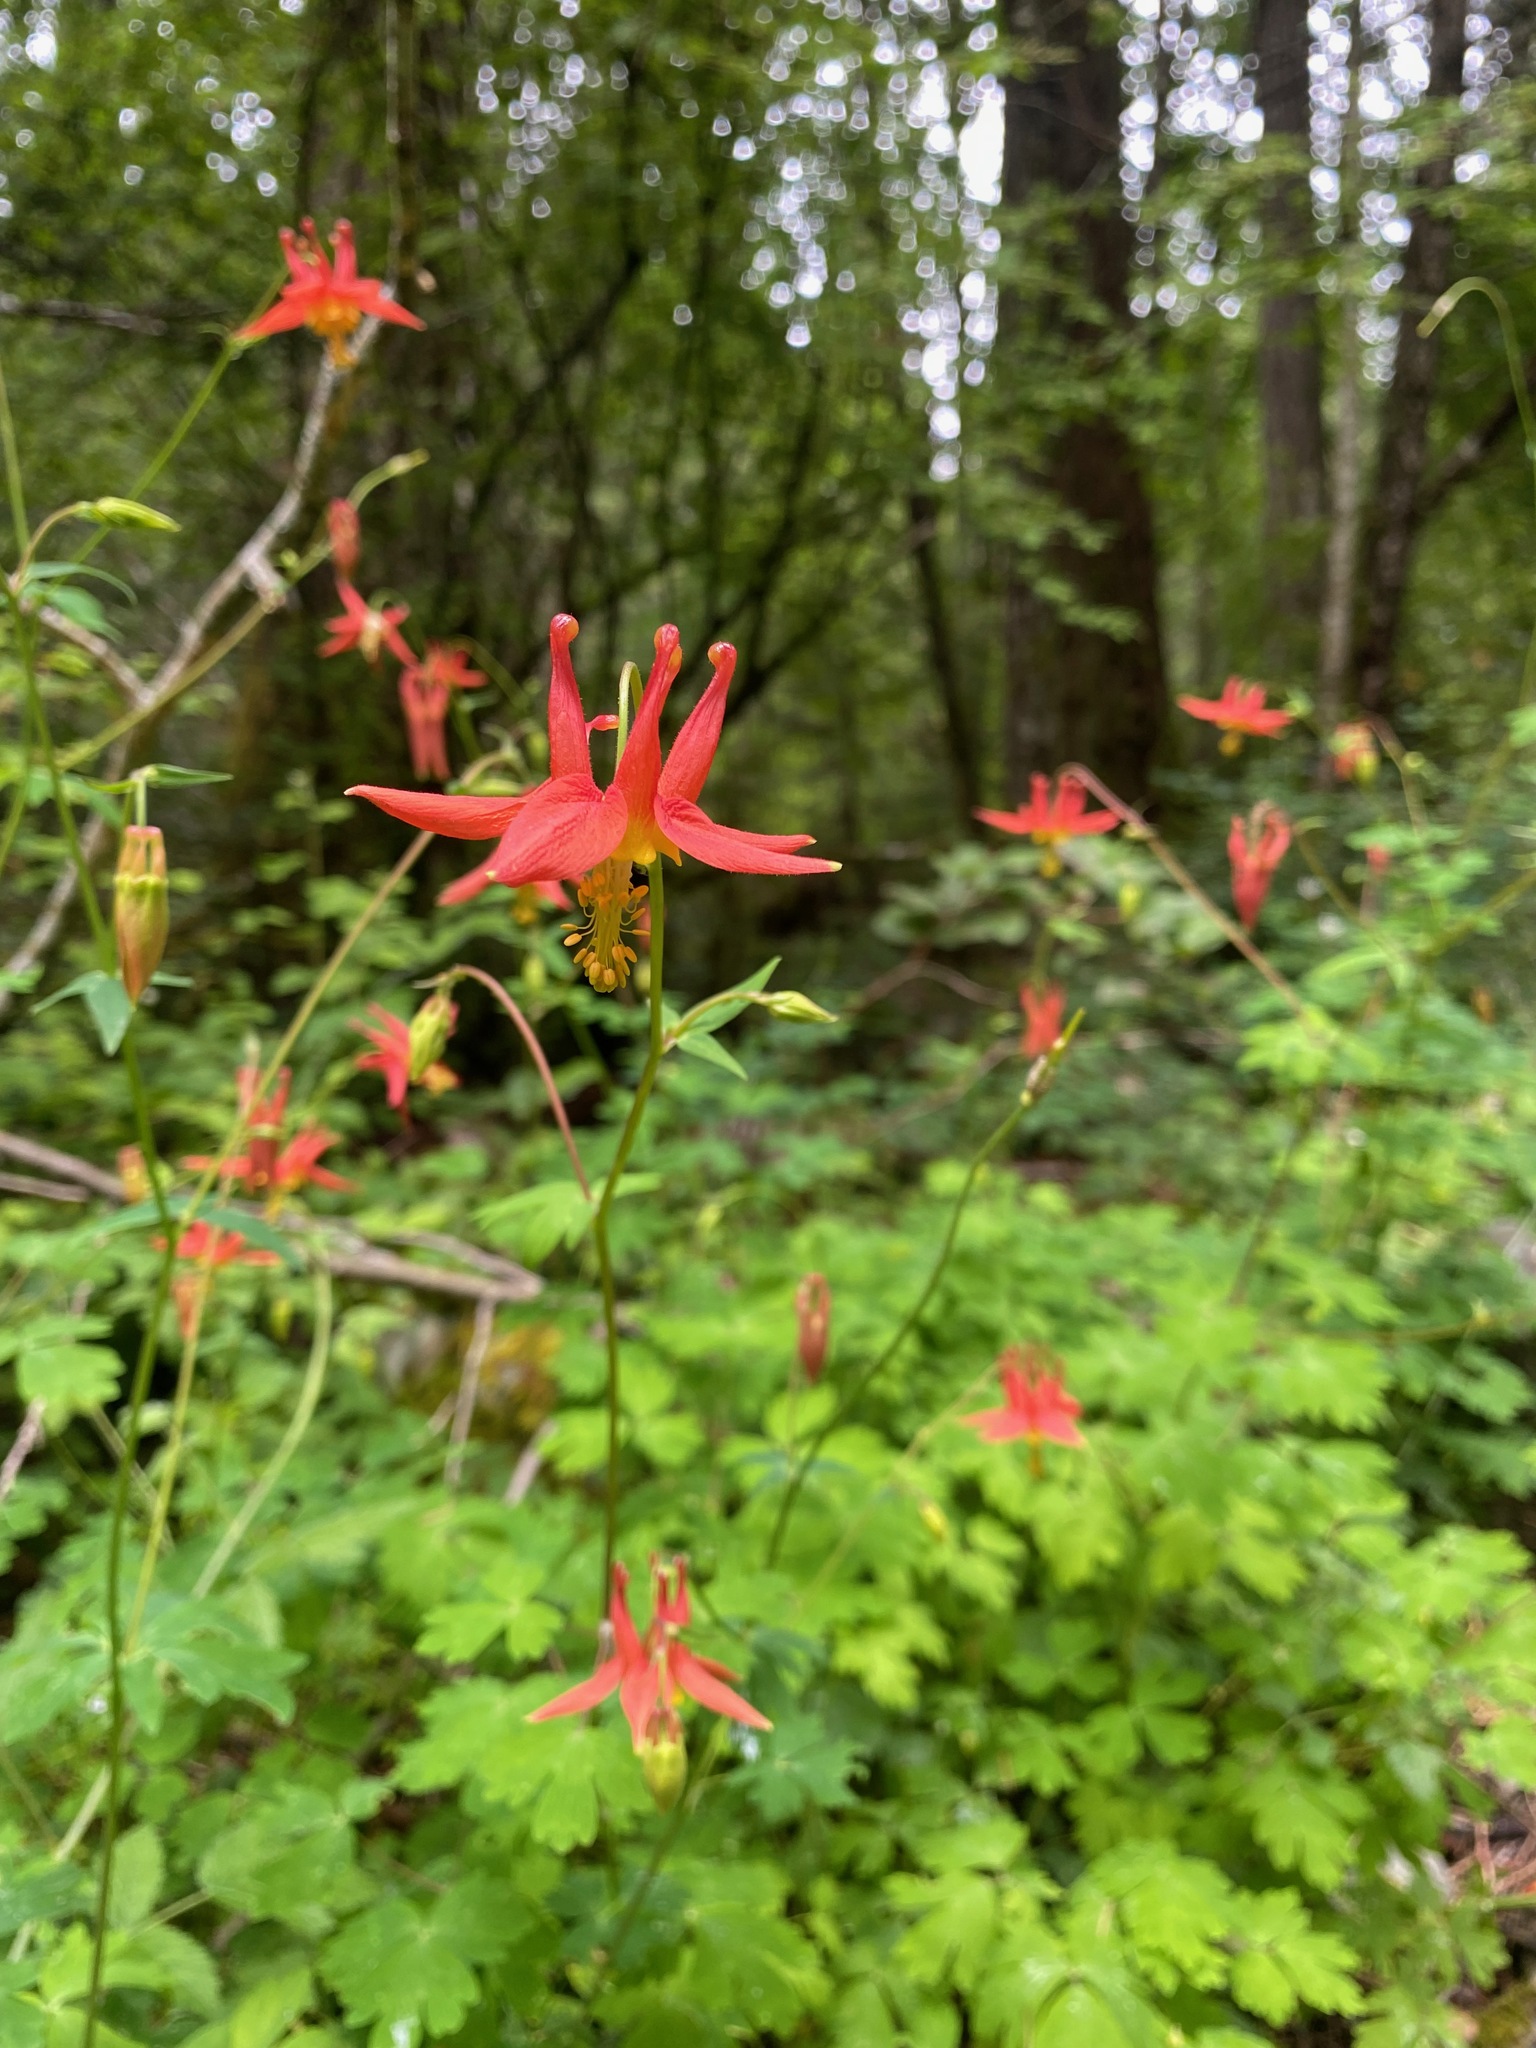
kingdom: Plantae
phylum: Tracheophyta
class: Magnoliopsida
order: Ranunculales
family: Ranunculaceae
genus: Aquilegia
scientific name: Aquilegia formosa
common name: Sitka columbine
